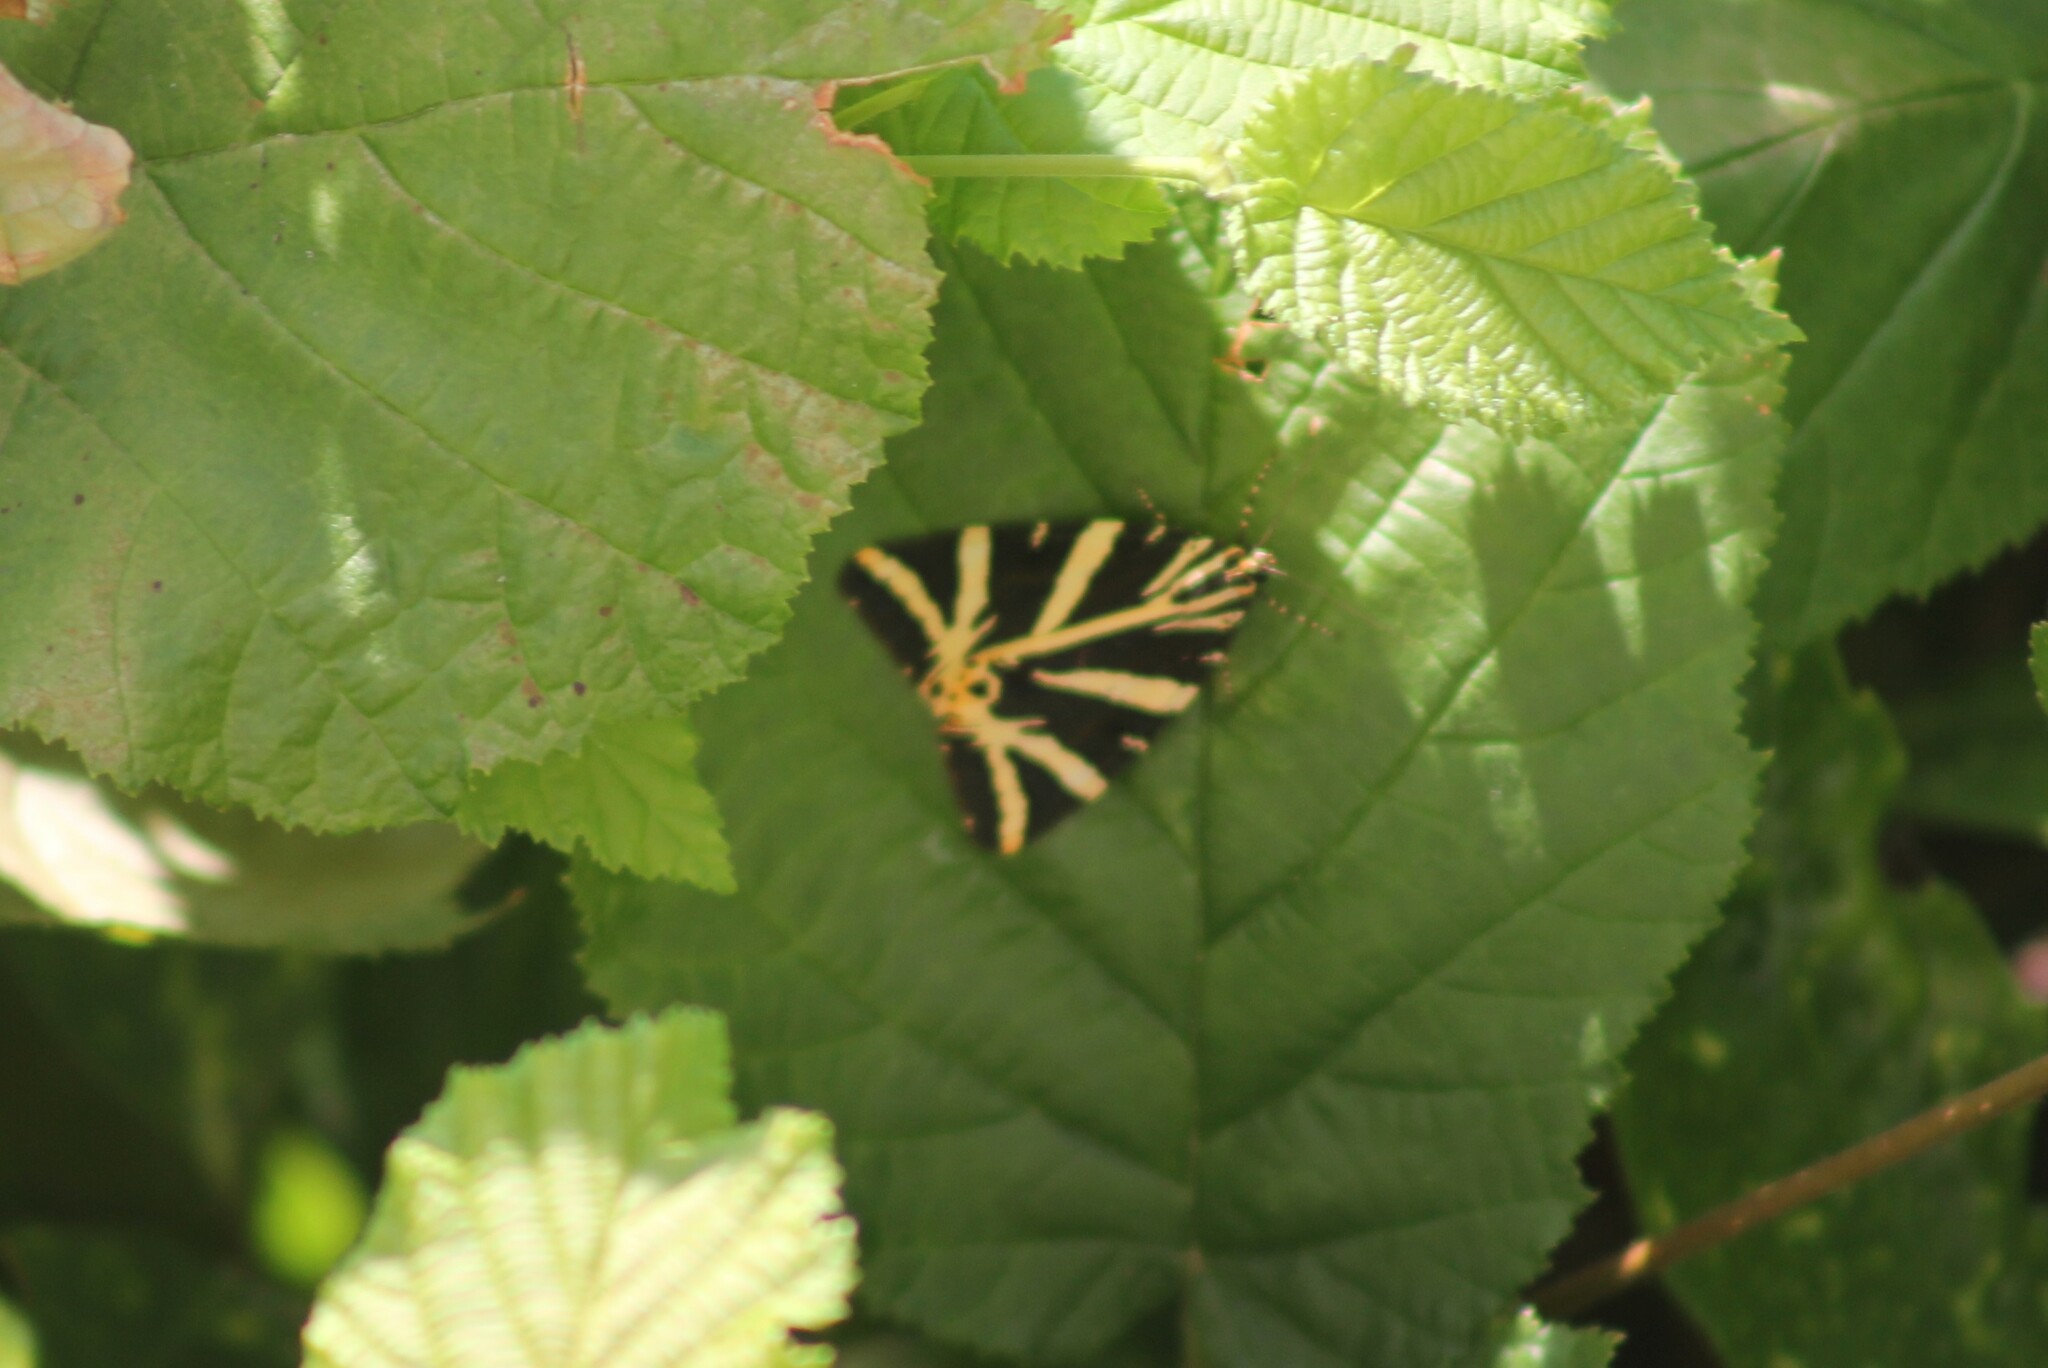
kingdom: Animalia
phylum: Arthropoda
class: Insecta
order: Lepidoptera
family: Erebidae
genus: Euplagia
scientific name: Euplagia quadripunctaria
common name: Jersey tiger
